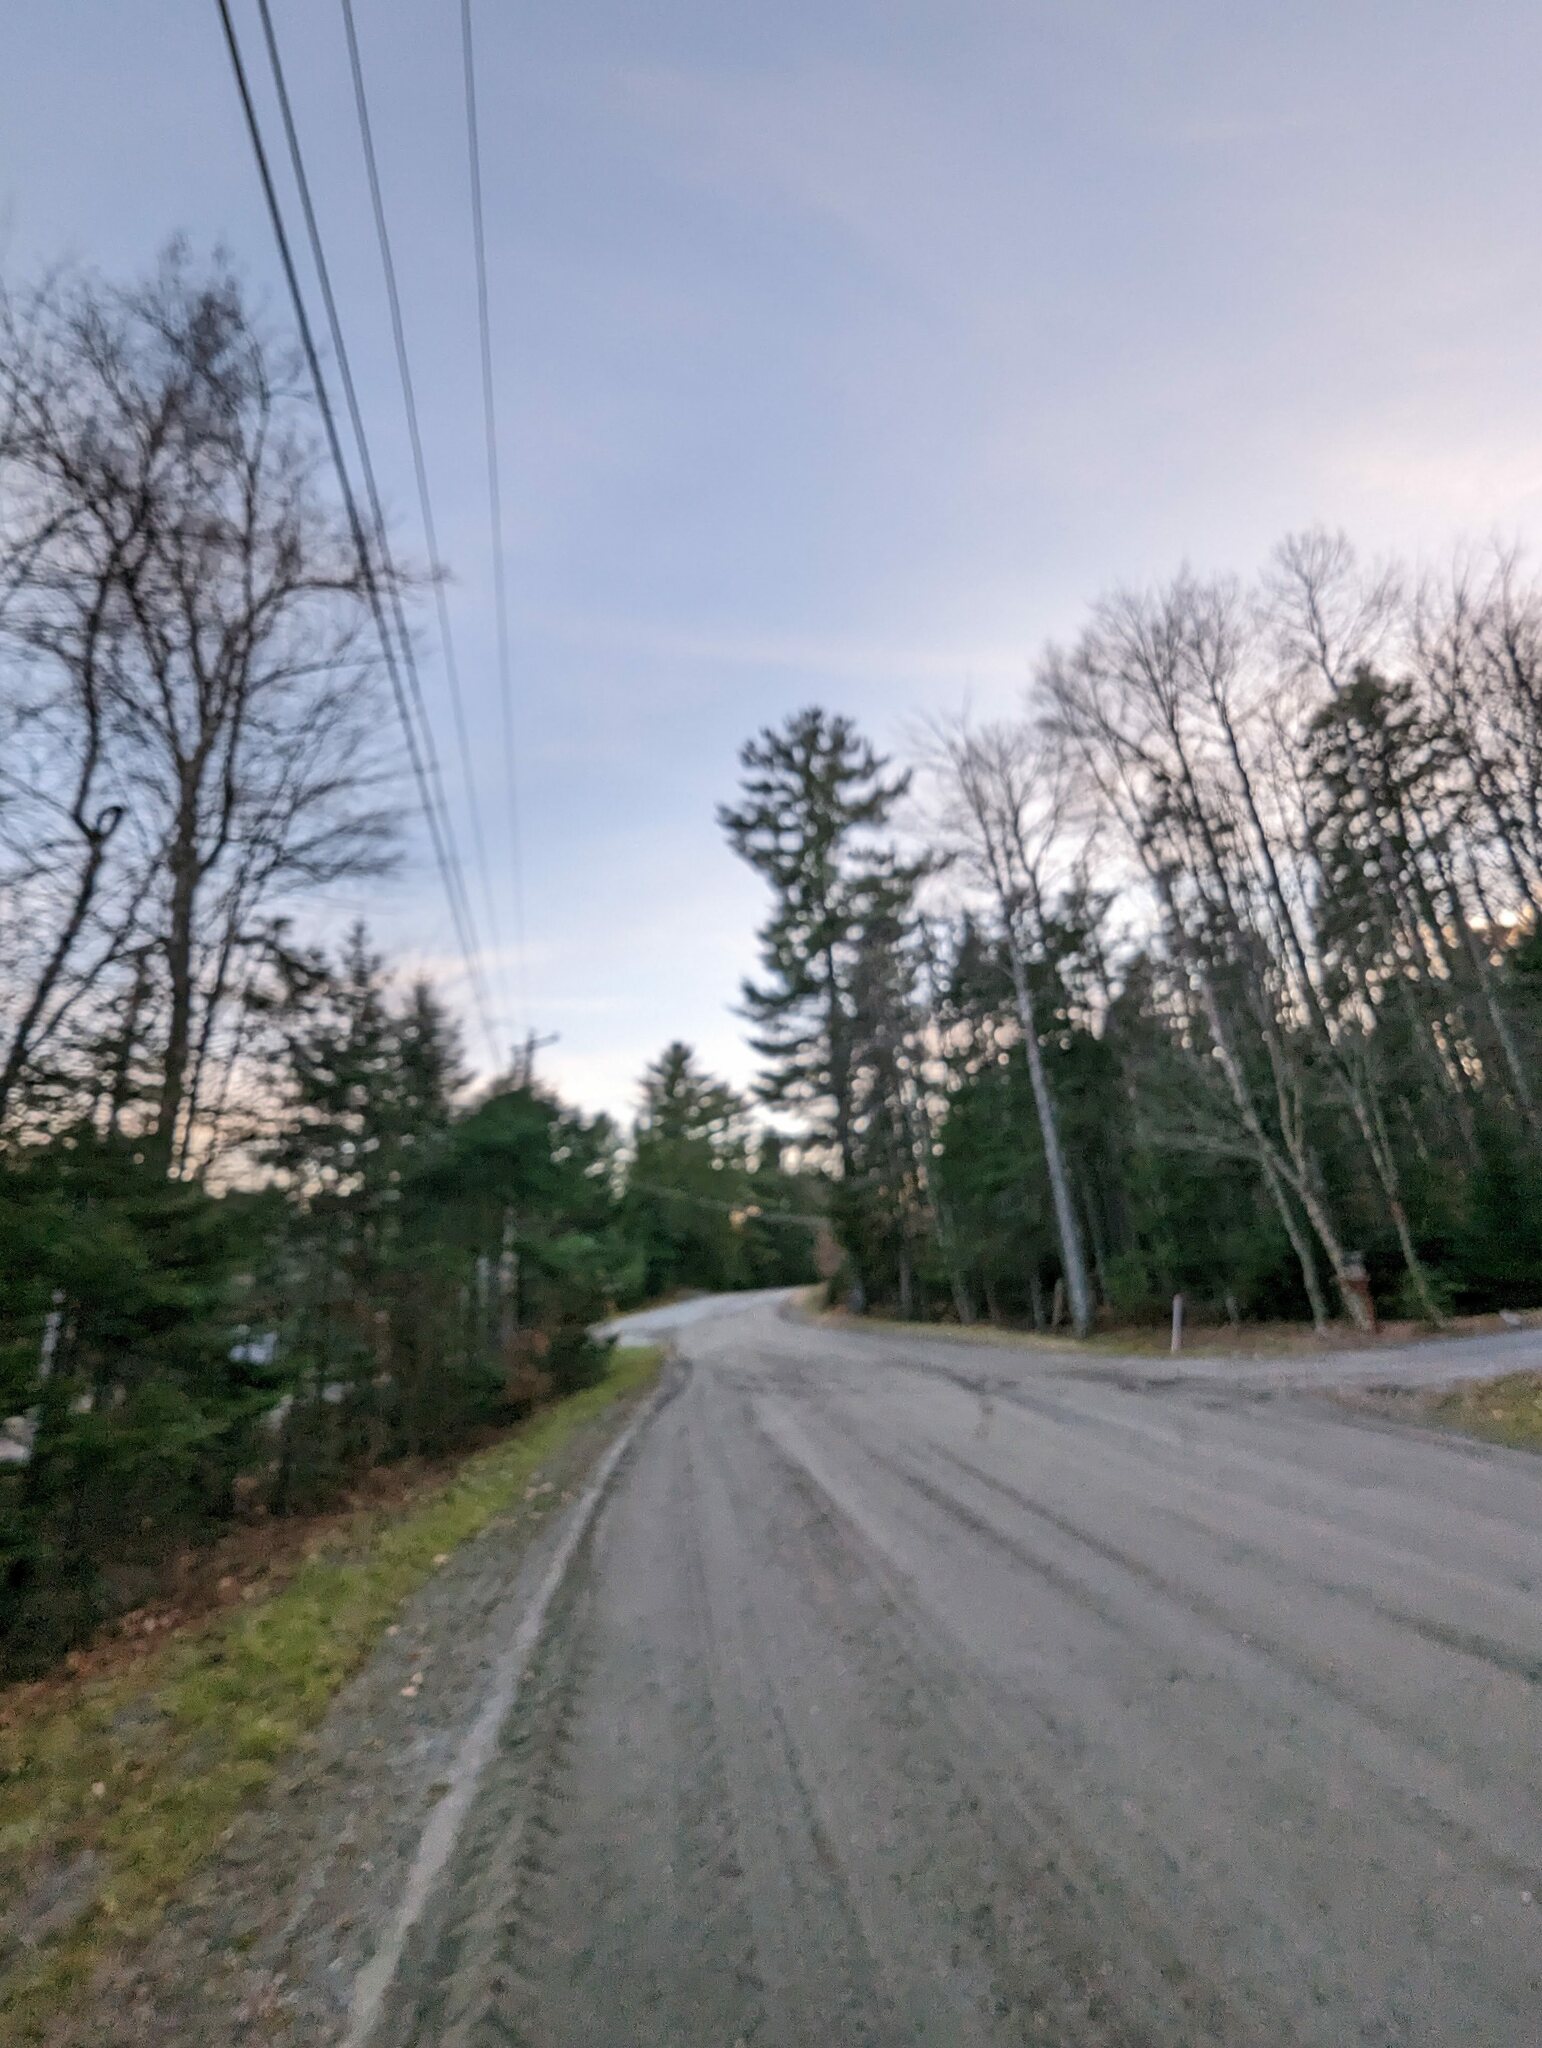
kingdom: Plantae
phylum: Tracheophyta
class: Pinopsida
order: Pinales
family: Pinaceae
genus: Pinus
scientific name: Pinus strobus
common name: Weymouth pine
